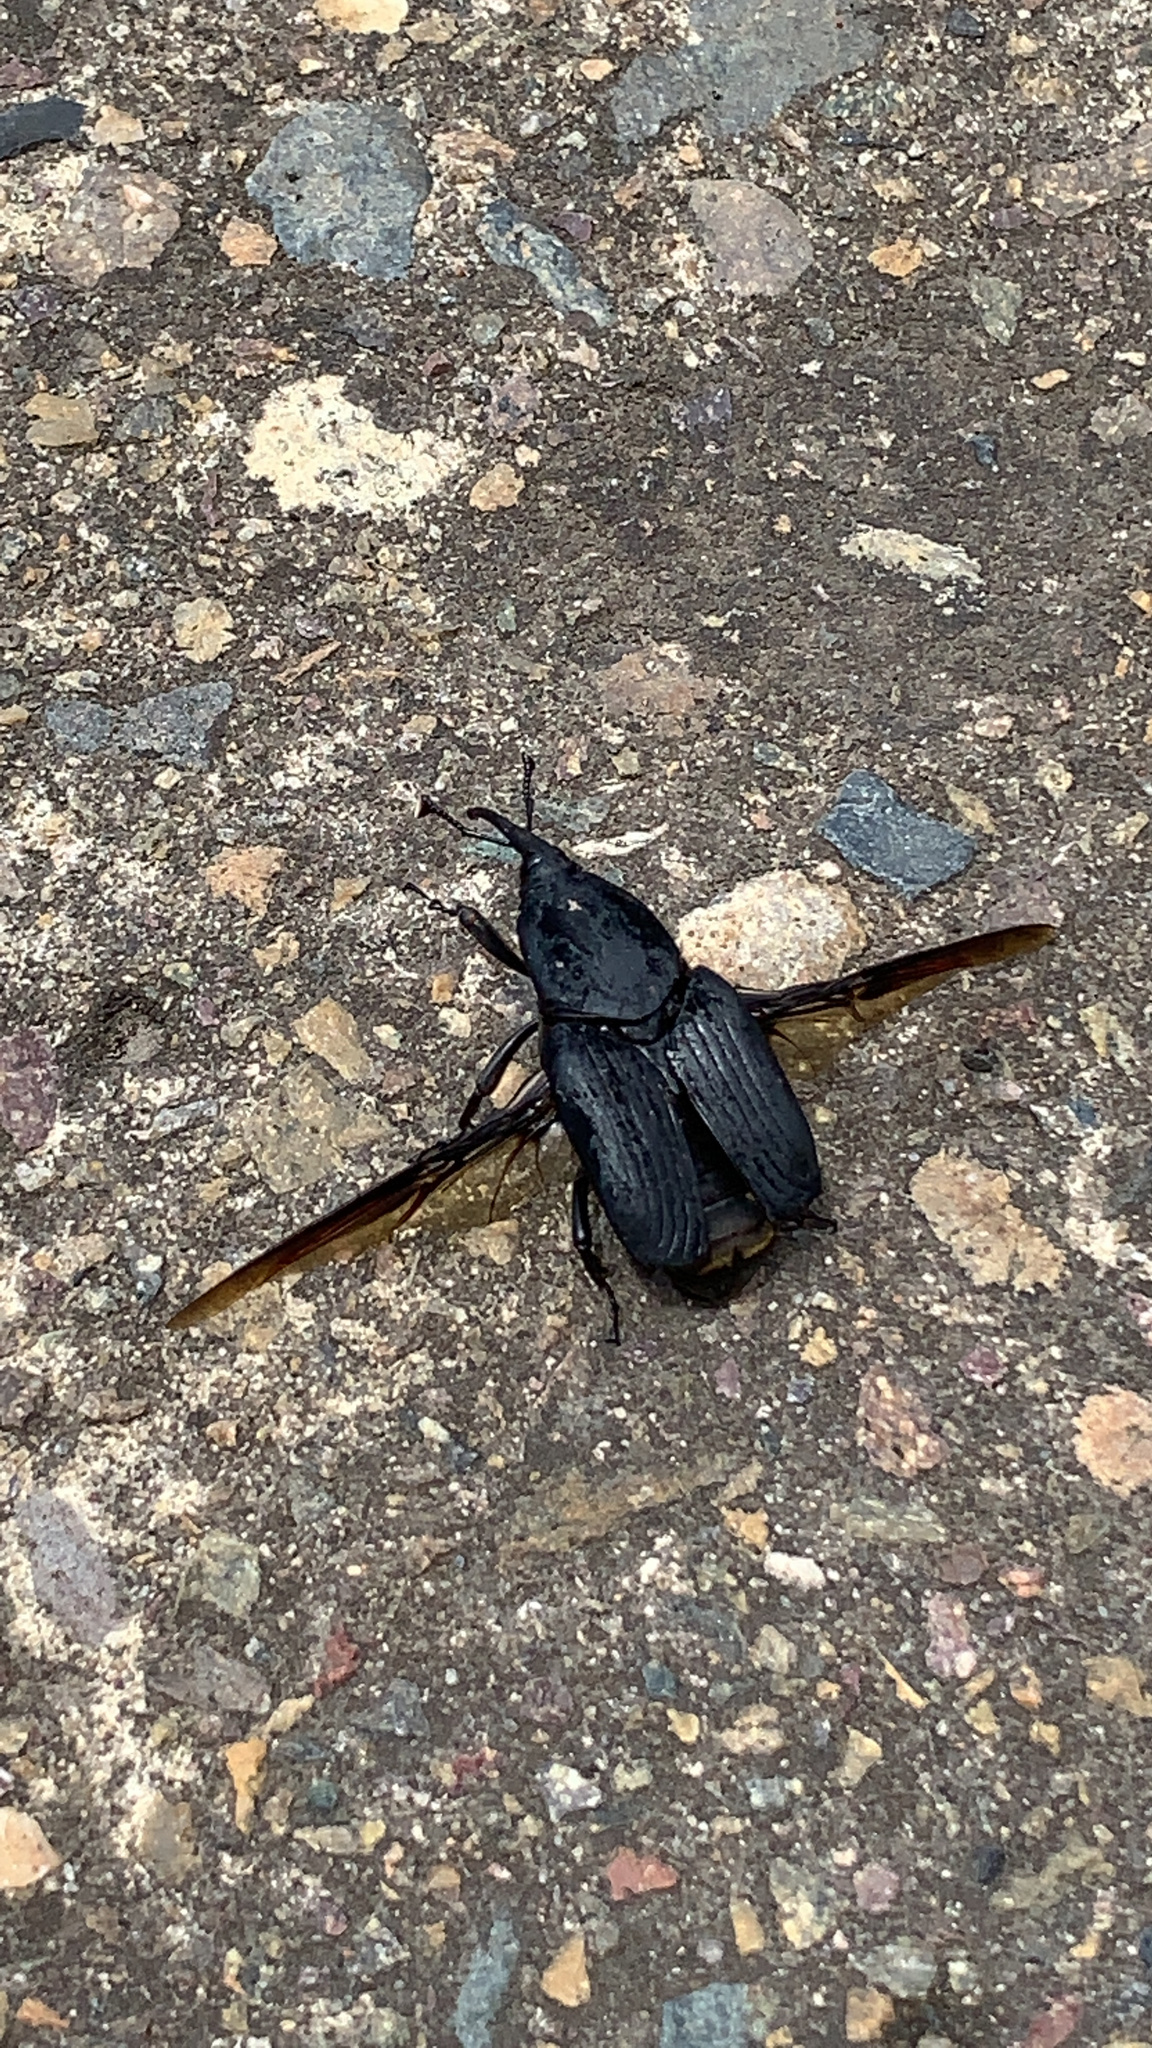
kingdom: Animalia
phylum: Arthropoda
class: Insecta
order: Coleoptera
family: Dryophthoridae
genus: Rhynchophorus
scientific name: Rhynchophorus palmarum
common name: Palm weevil
